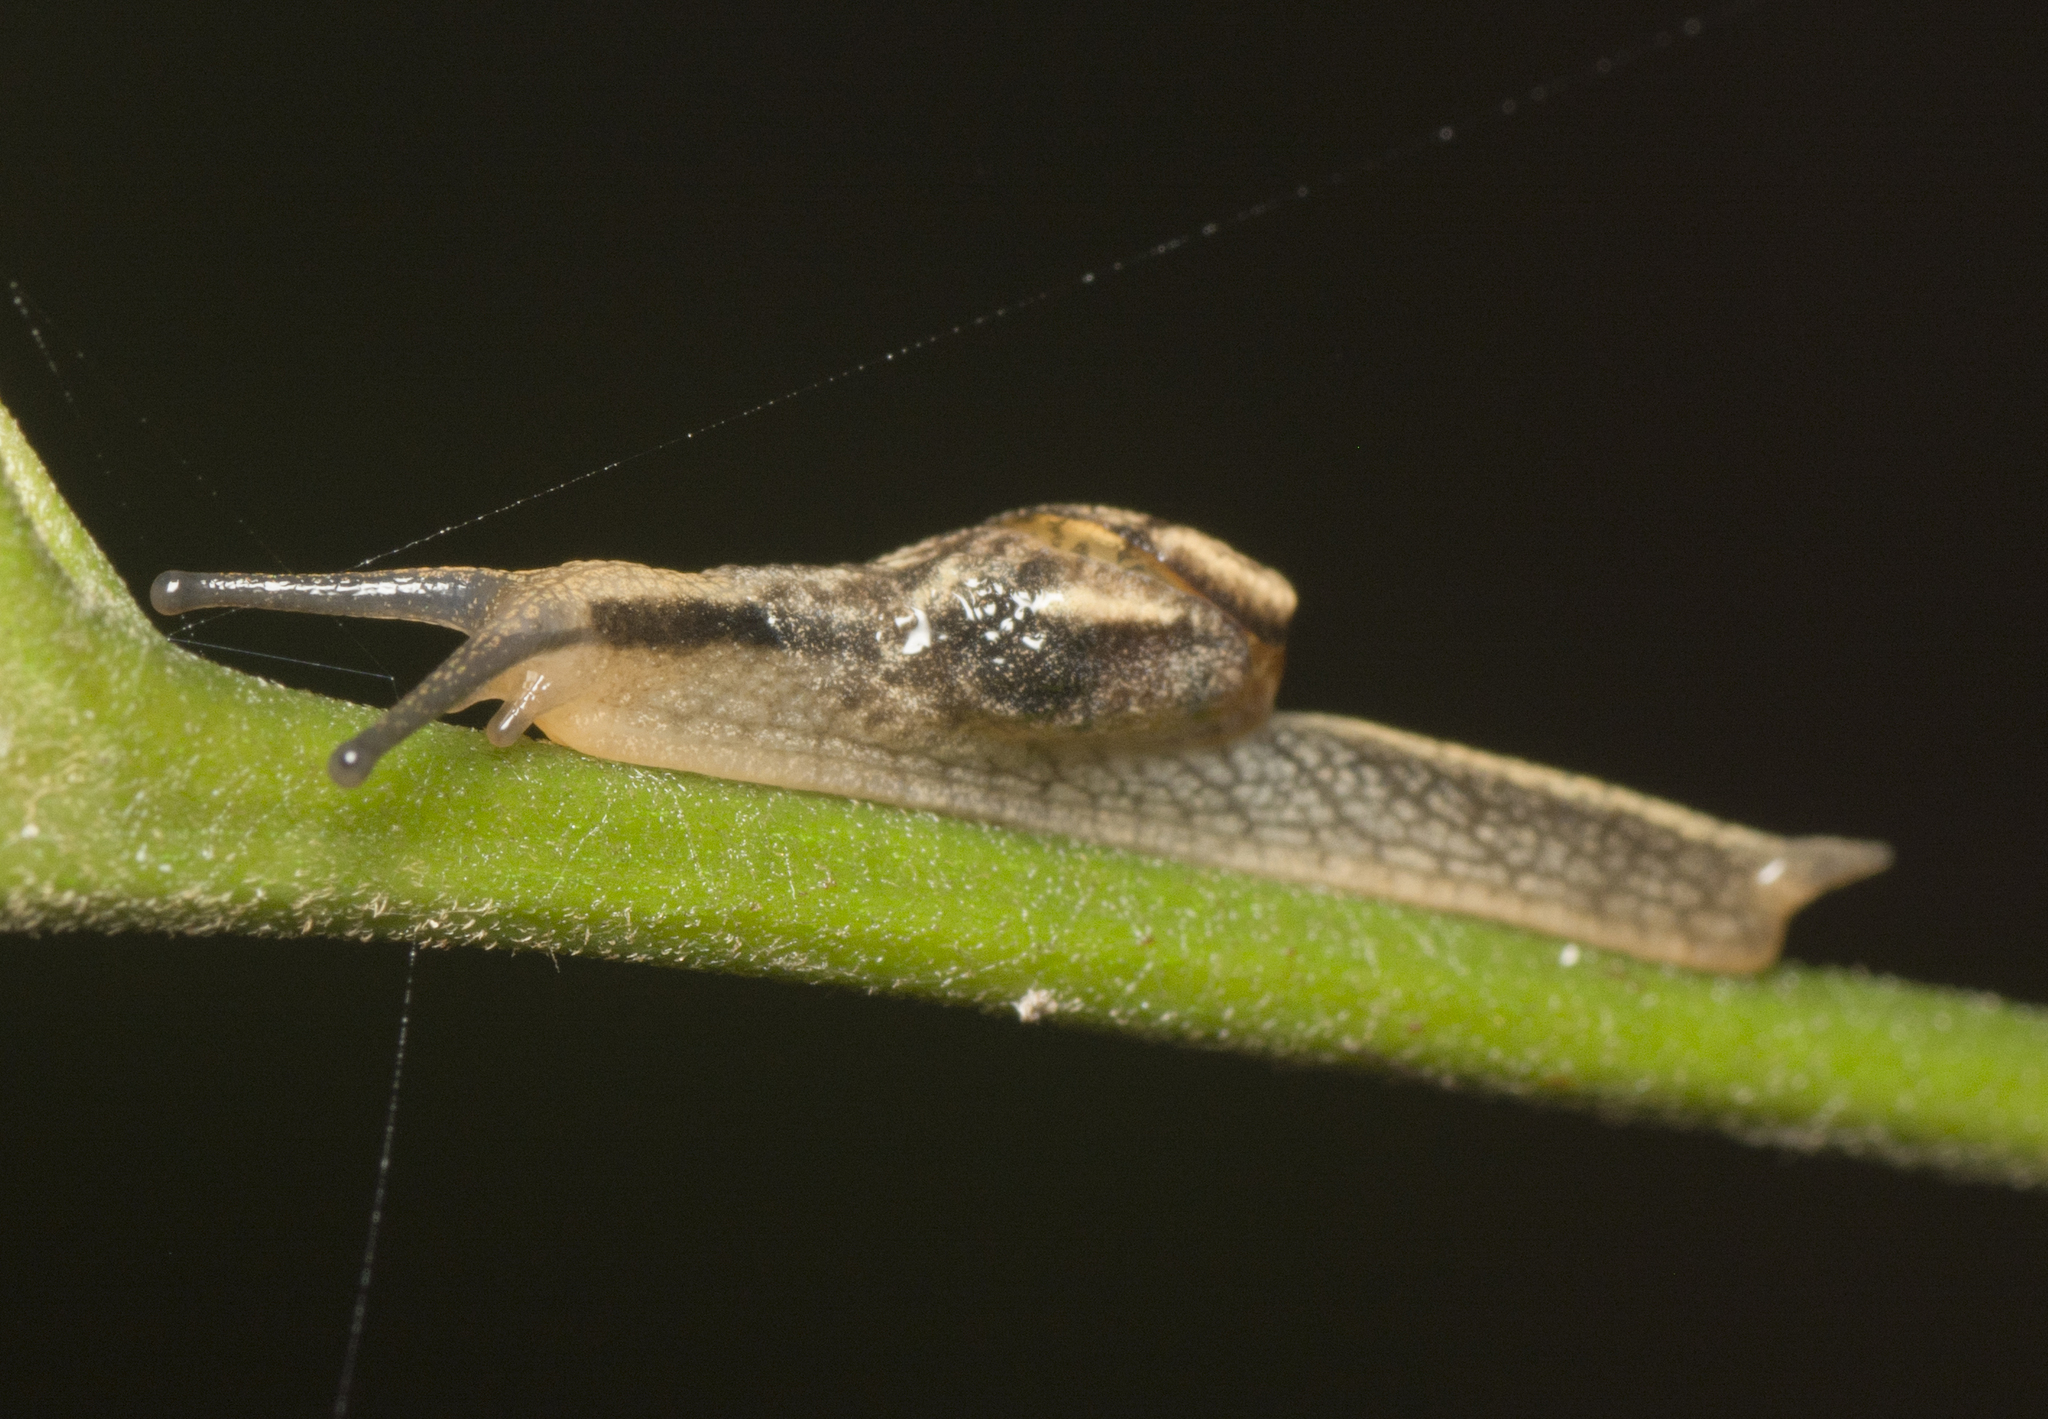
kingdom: Animalia
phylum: Mollusca
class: Gastropoda
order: Stylommatophora
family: Helicarionidae
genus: Ubiquitarion
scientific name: Ubiquitarion iridis
